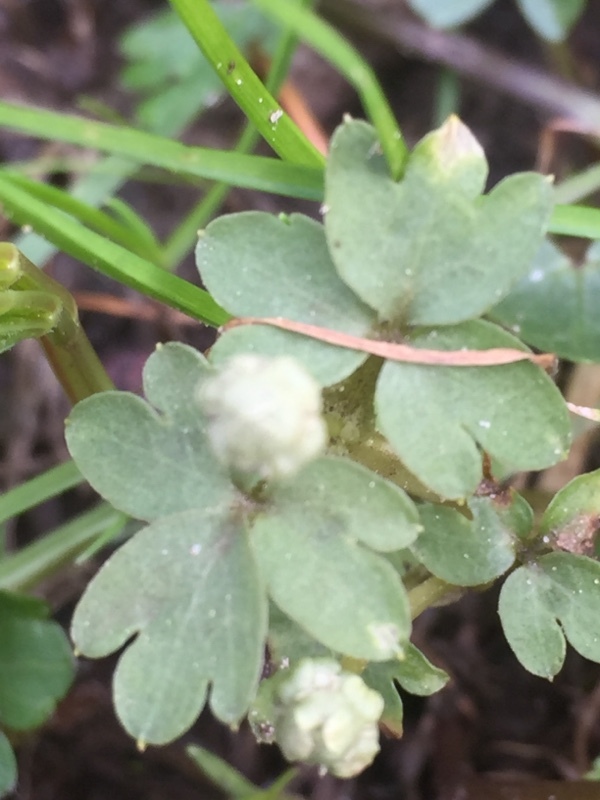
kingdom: Plantae
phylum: Tracheophyta
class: Magnoliopsida
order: Dipsacales
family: Viburnaceae
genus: Adoxa
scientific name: Adoxa moschatellina
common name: Moschatel
